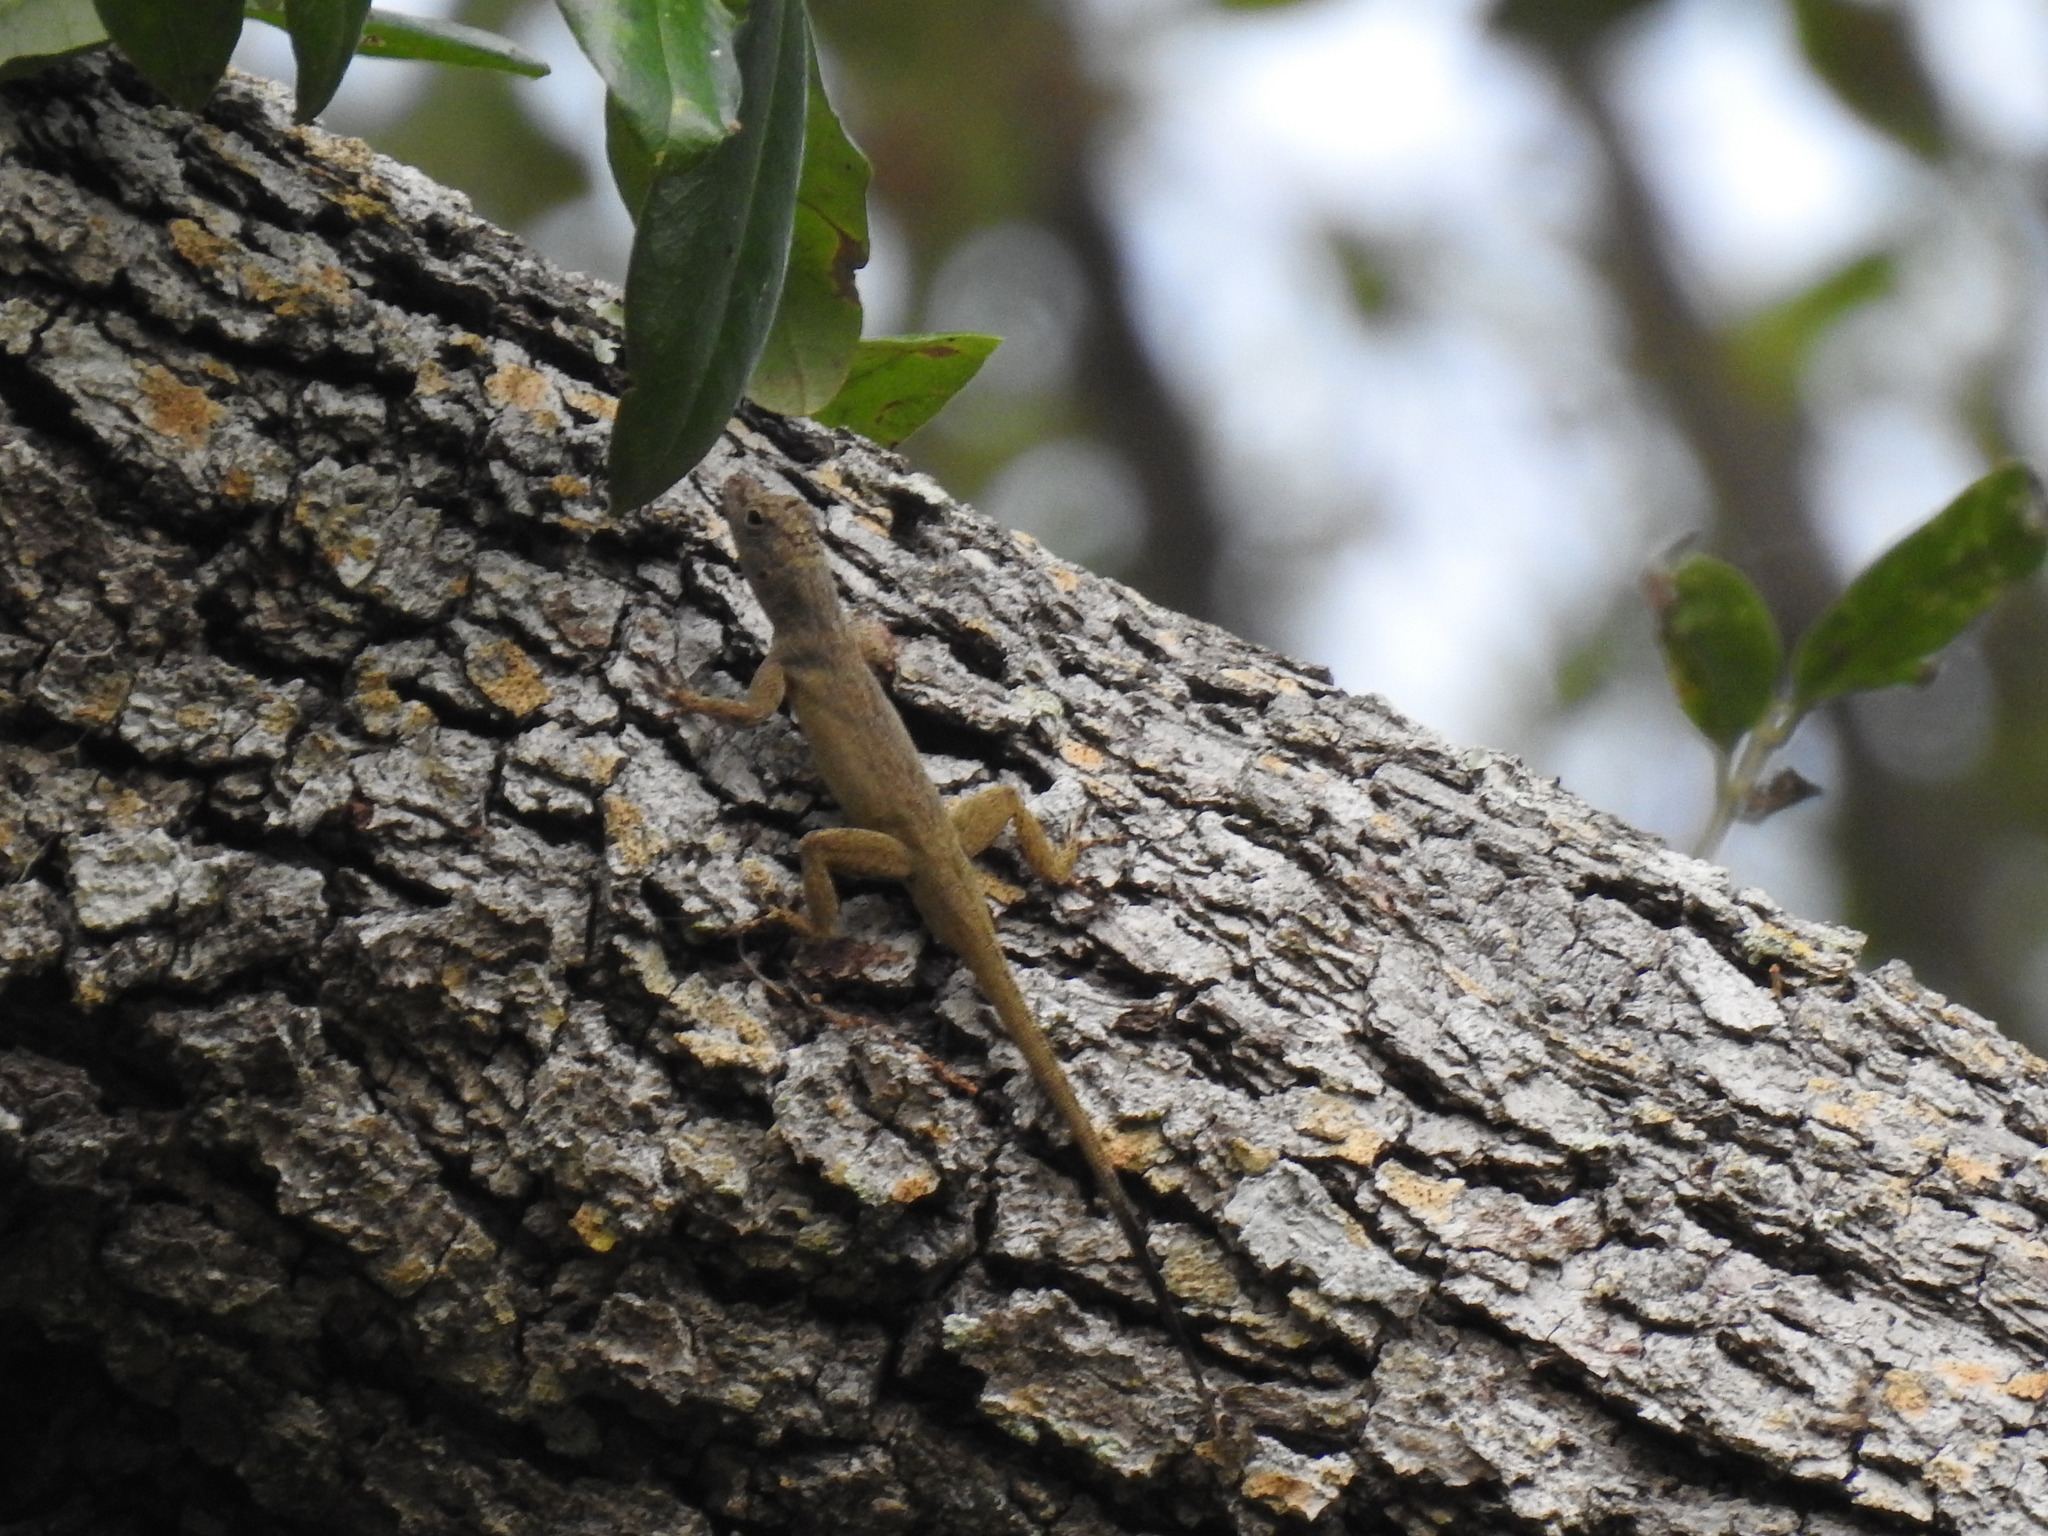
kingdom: Animalia
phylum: Chordata
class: Squamata
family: Dactyloidae
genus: Anolis
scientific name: Anolis distichus
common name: Bark anole
